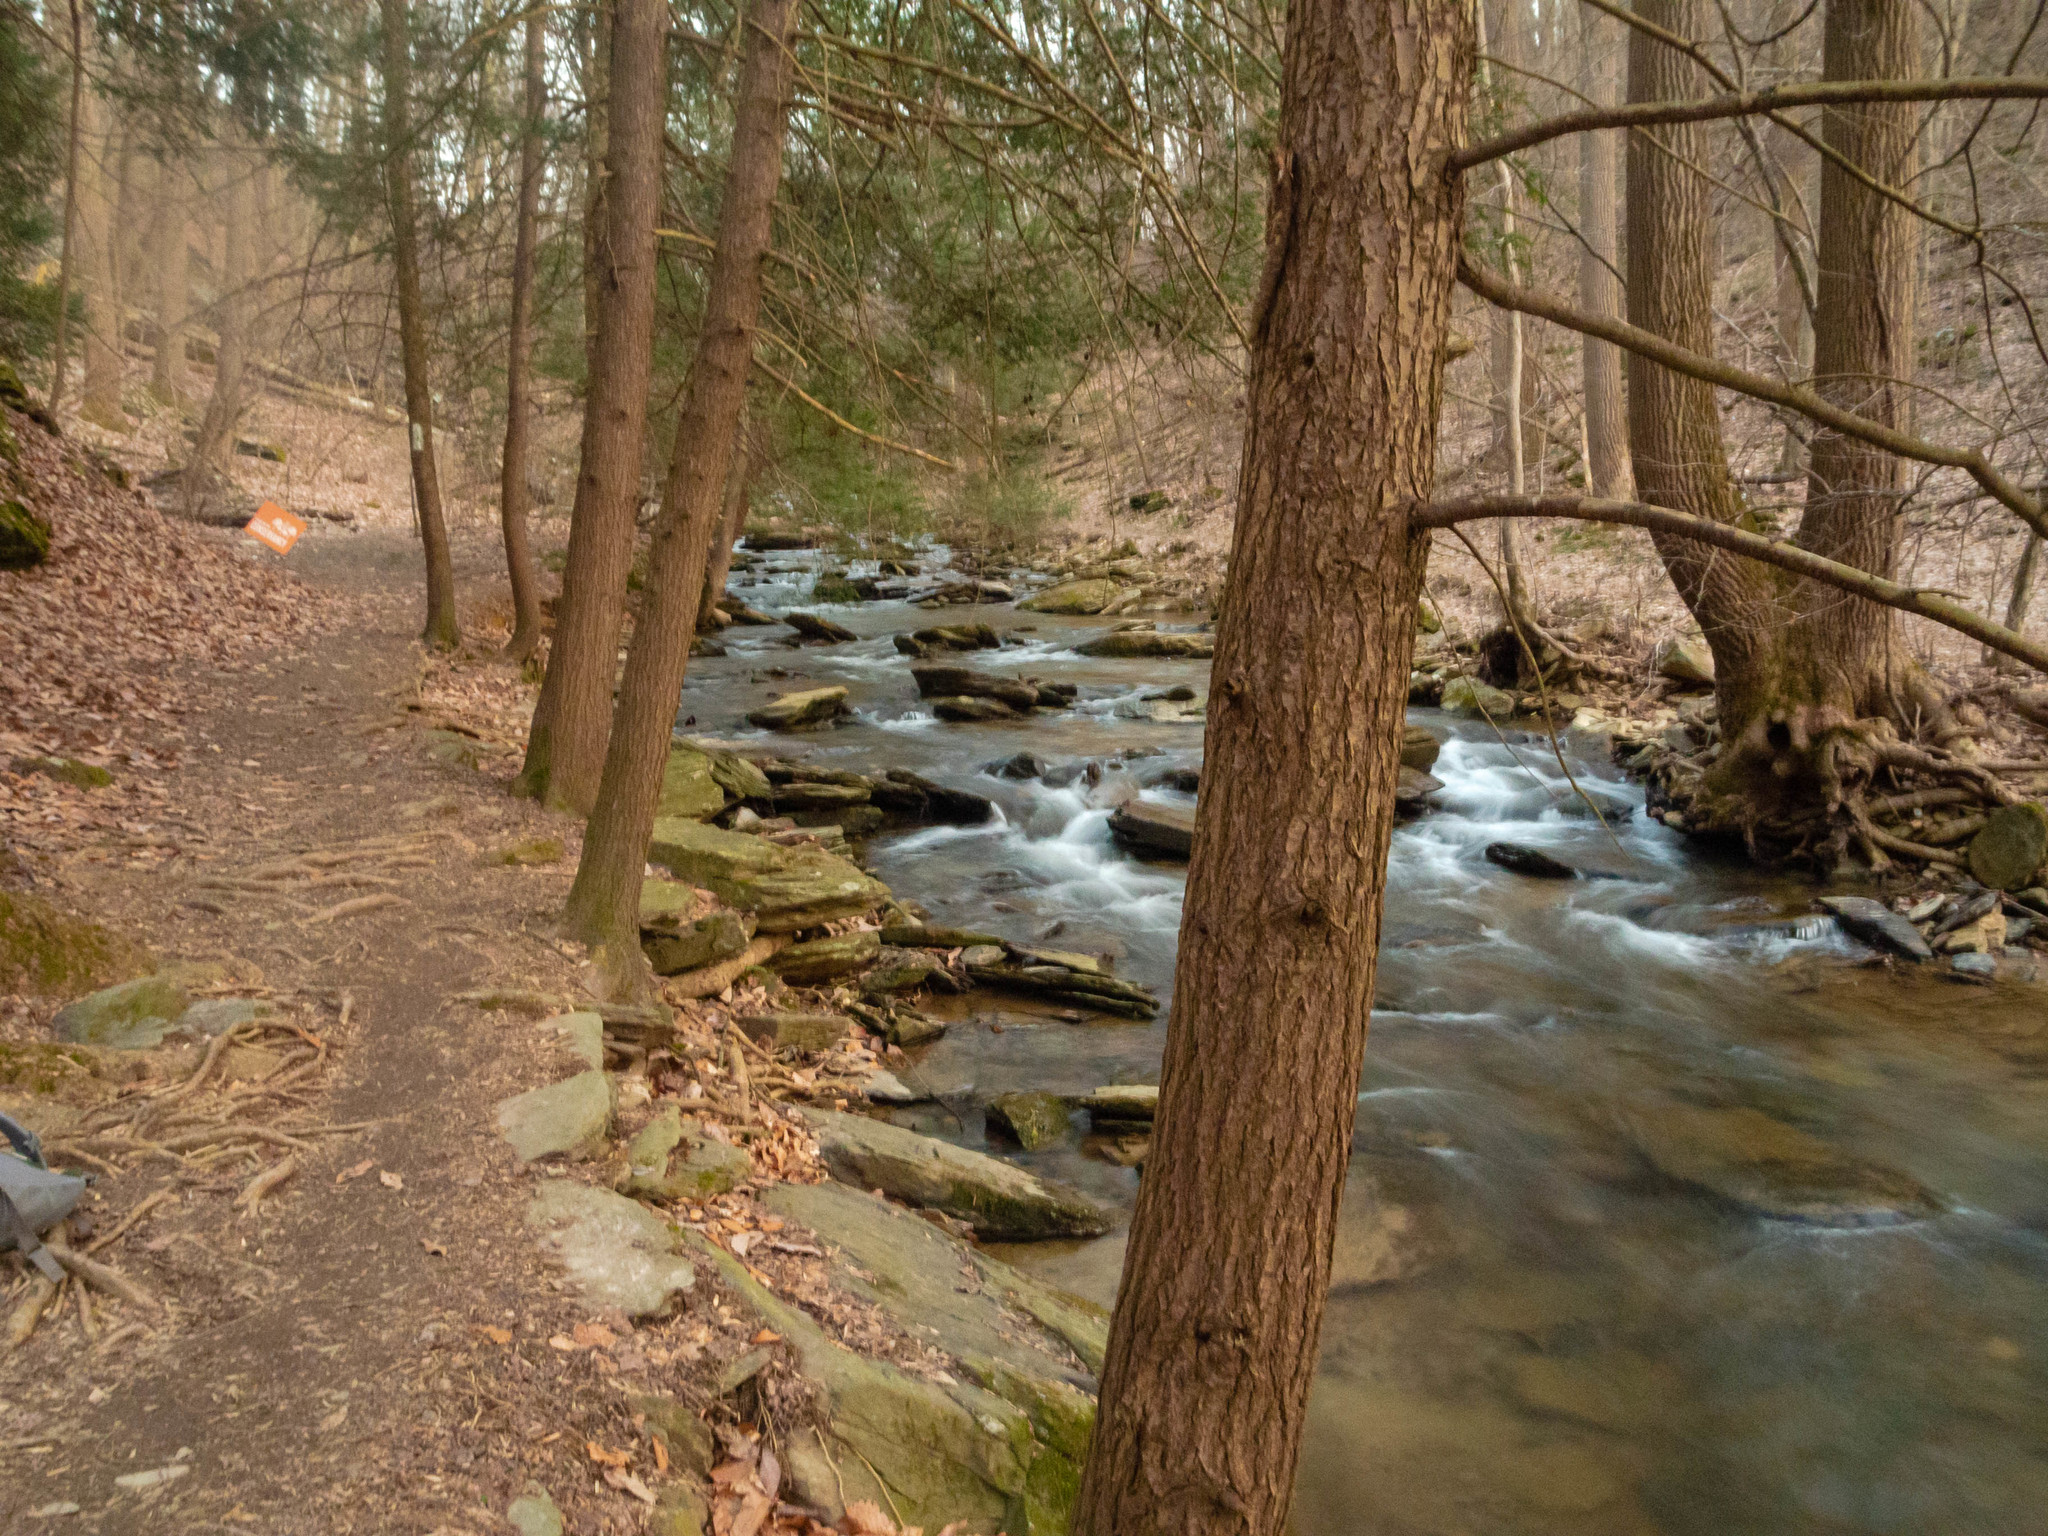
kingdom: Plantae
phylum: Tracheophyta
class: Pinopsida
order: Pinales
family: Pinaceae
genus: Tsuga
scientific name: Tsuga canadensis
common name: Eastern hemlock
